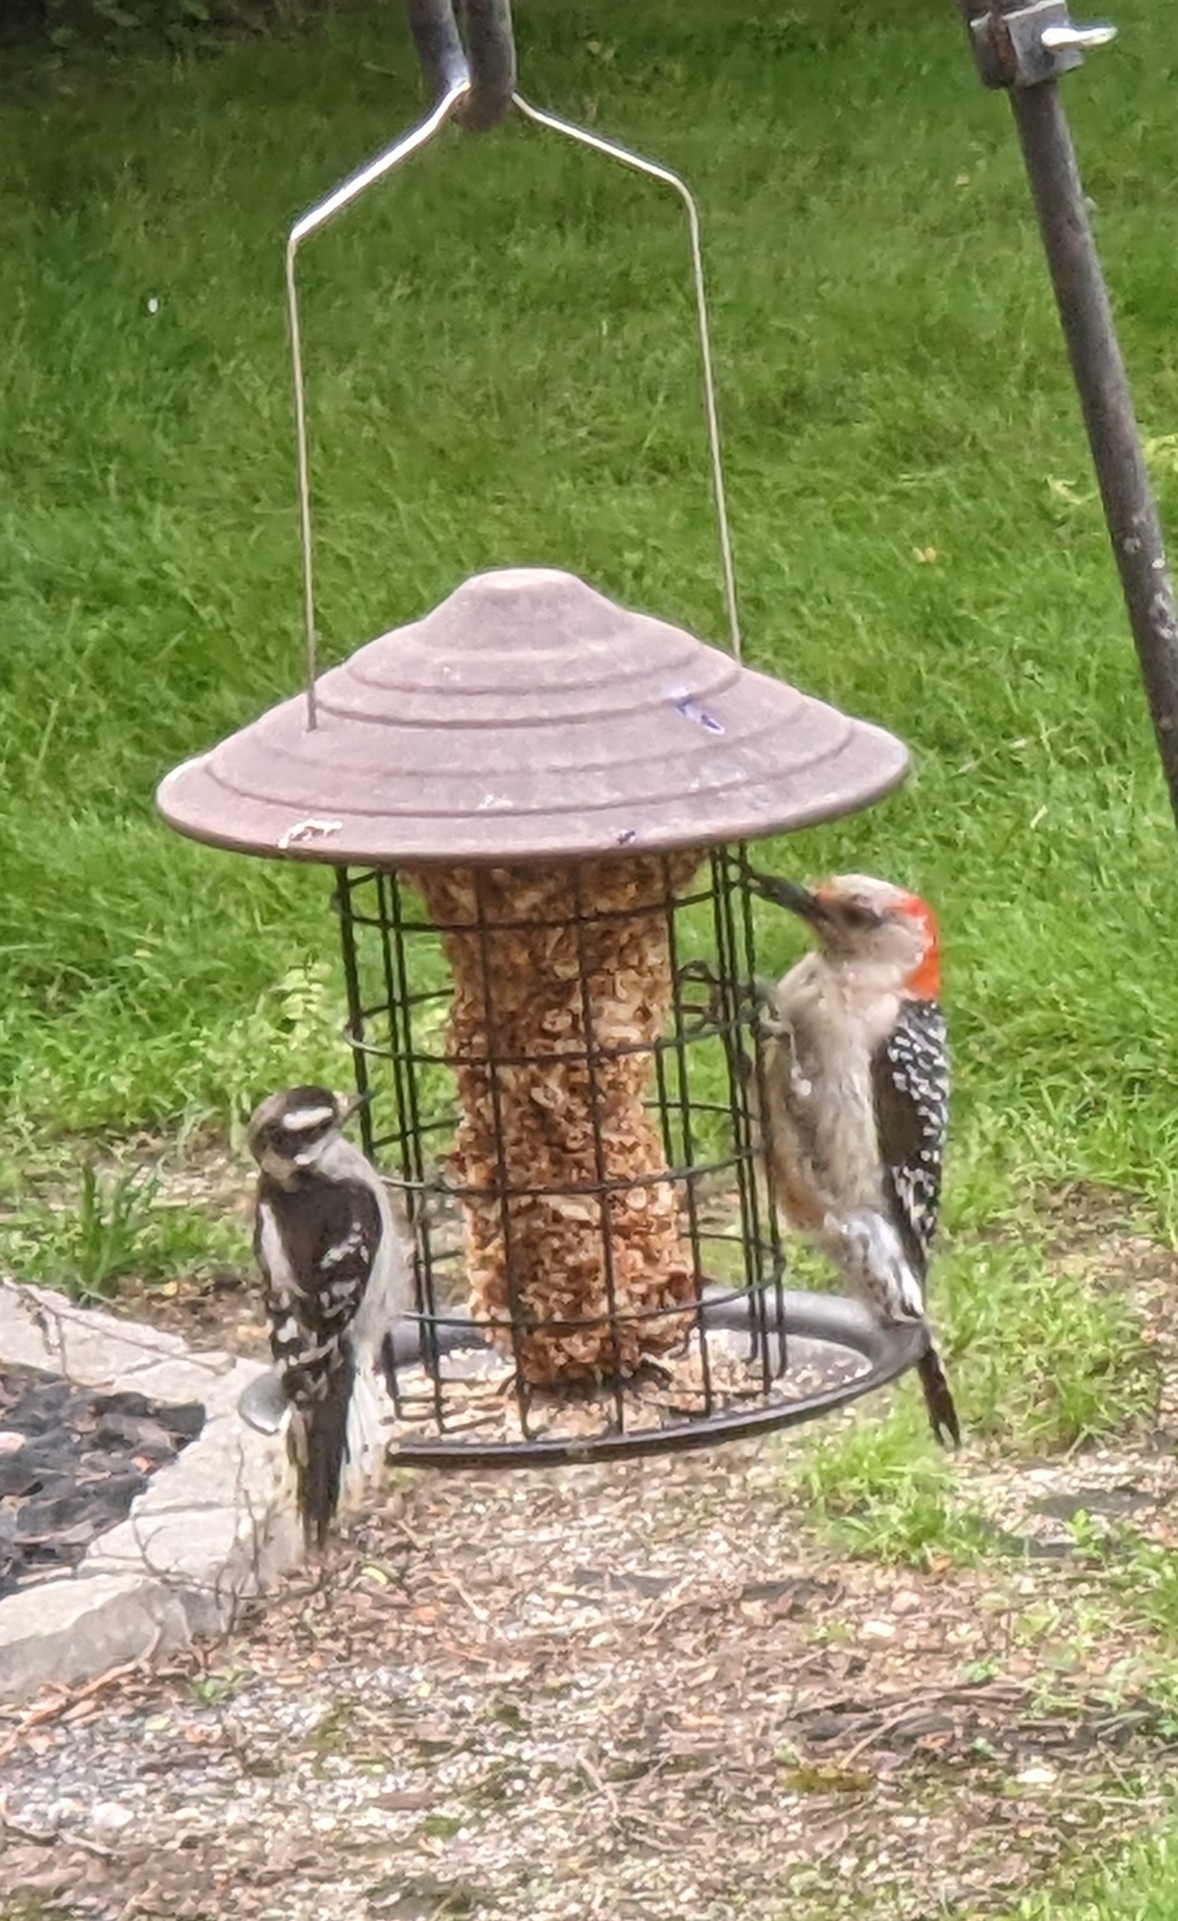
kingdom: Animalia
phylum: Chordata
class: Aves
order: Piciformes
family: Picidae
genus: Melanerpes
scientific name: Melanerpes carolinus
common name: Red-bellied woodpecker
